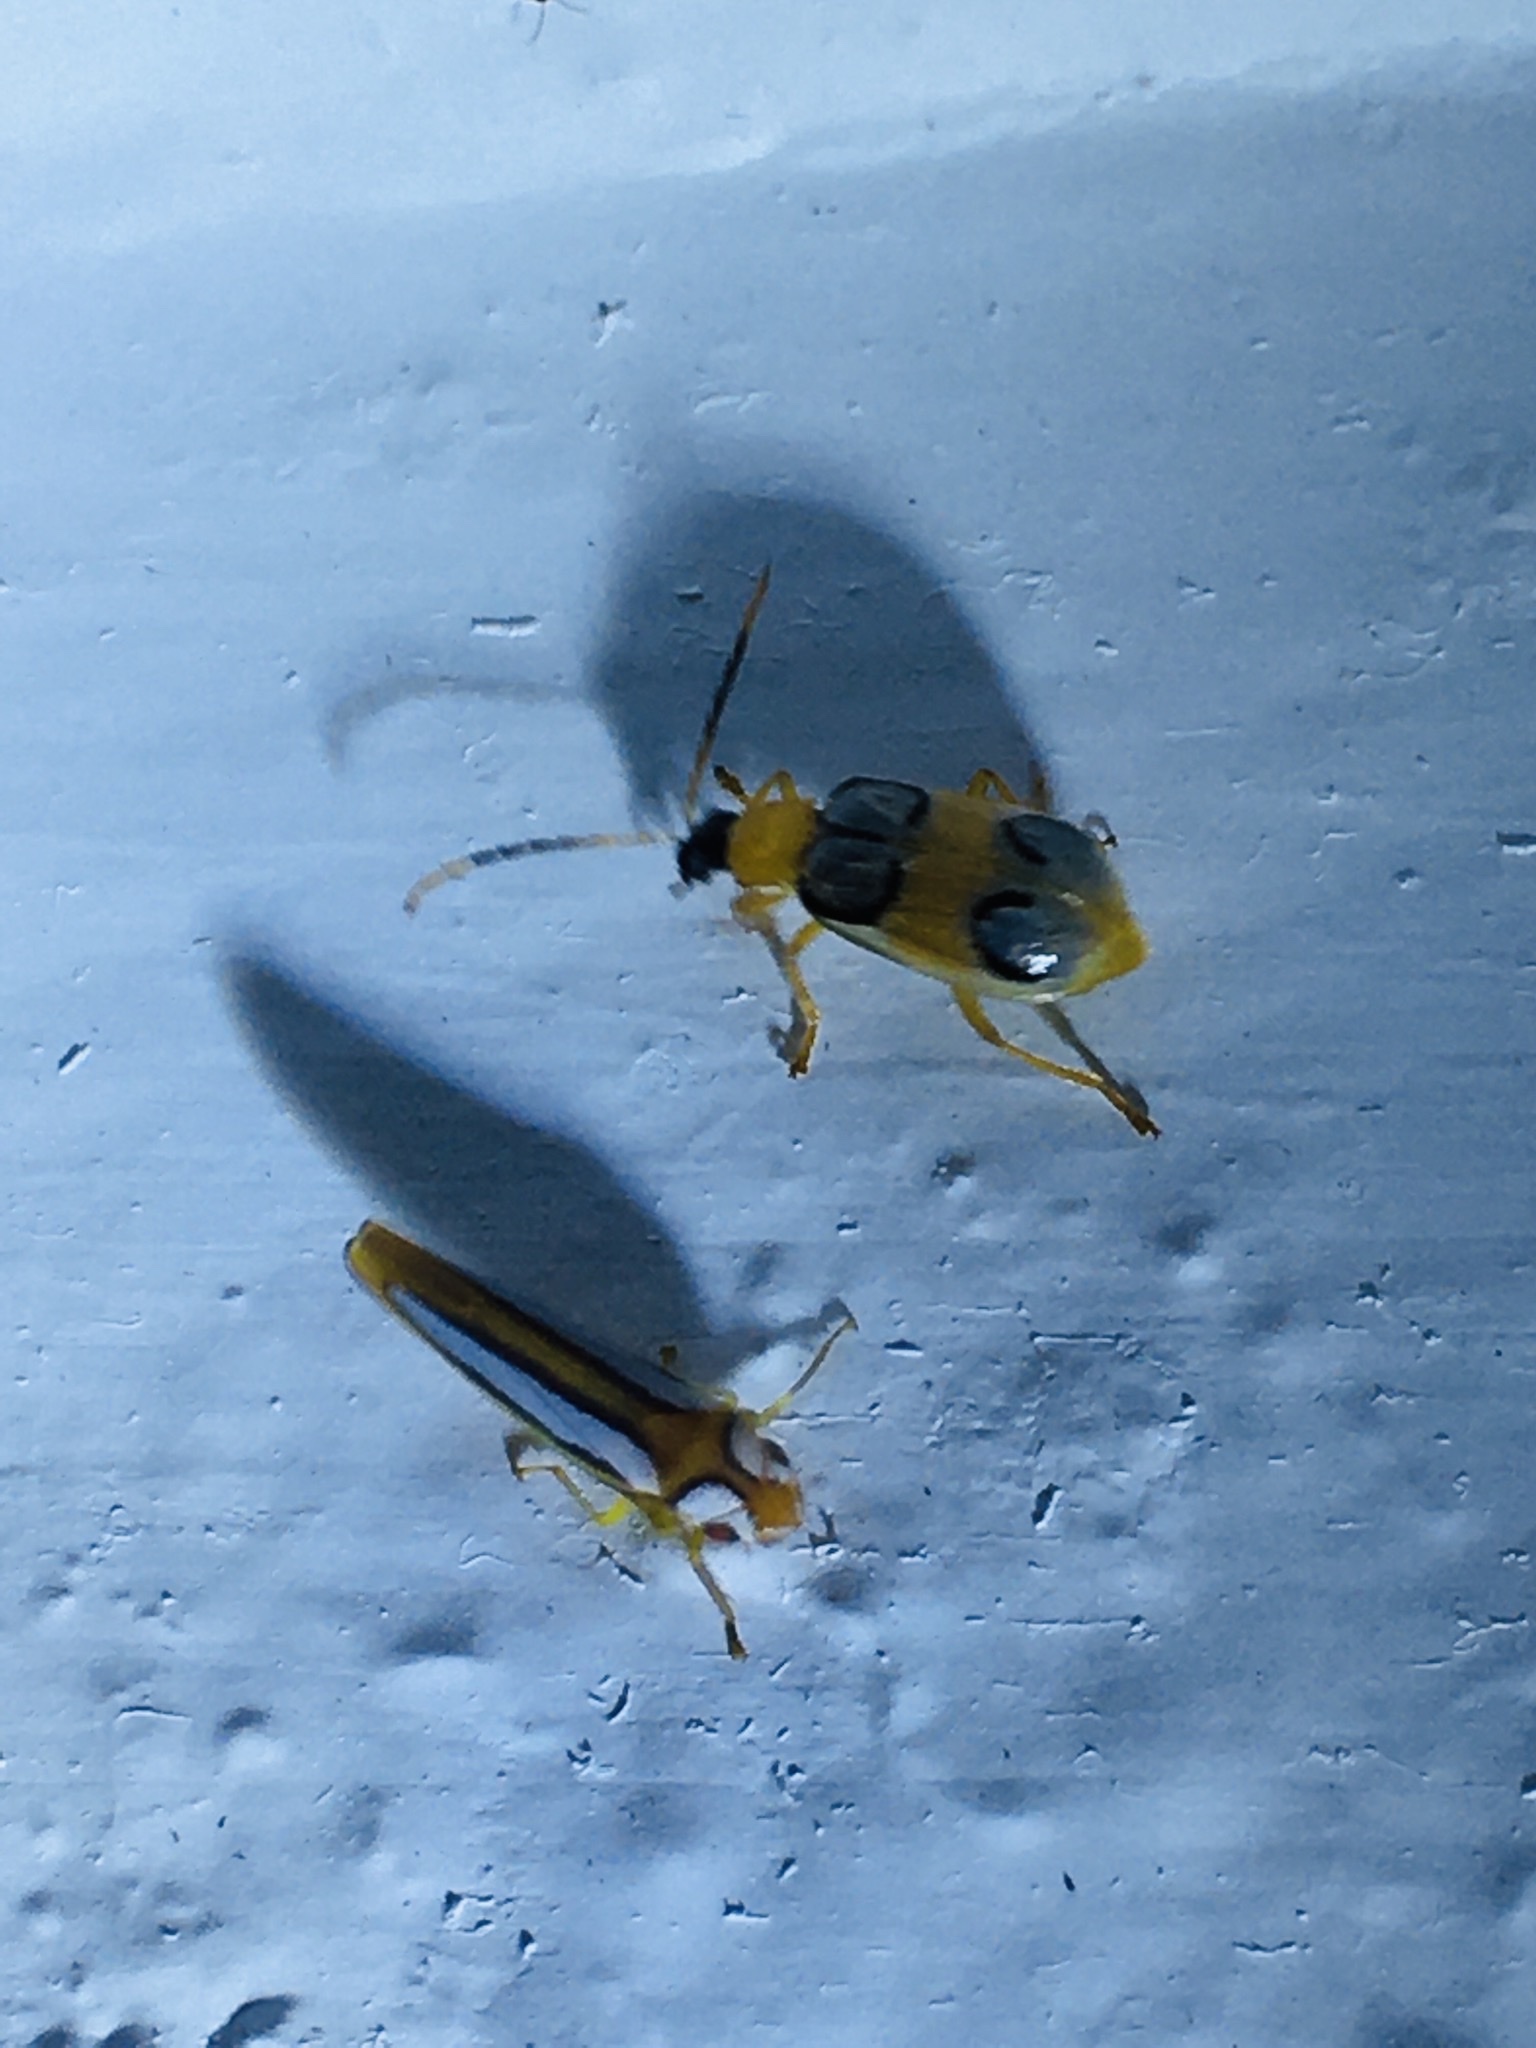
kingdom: Animalia
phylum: Arthropoda
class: Insecta
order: Hemiptera
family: Cicadellidae
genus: Graphocephala
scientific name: Graphocephala lucasii
